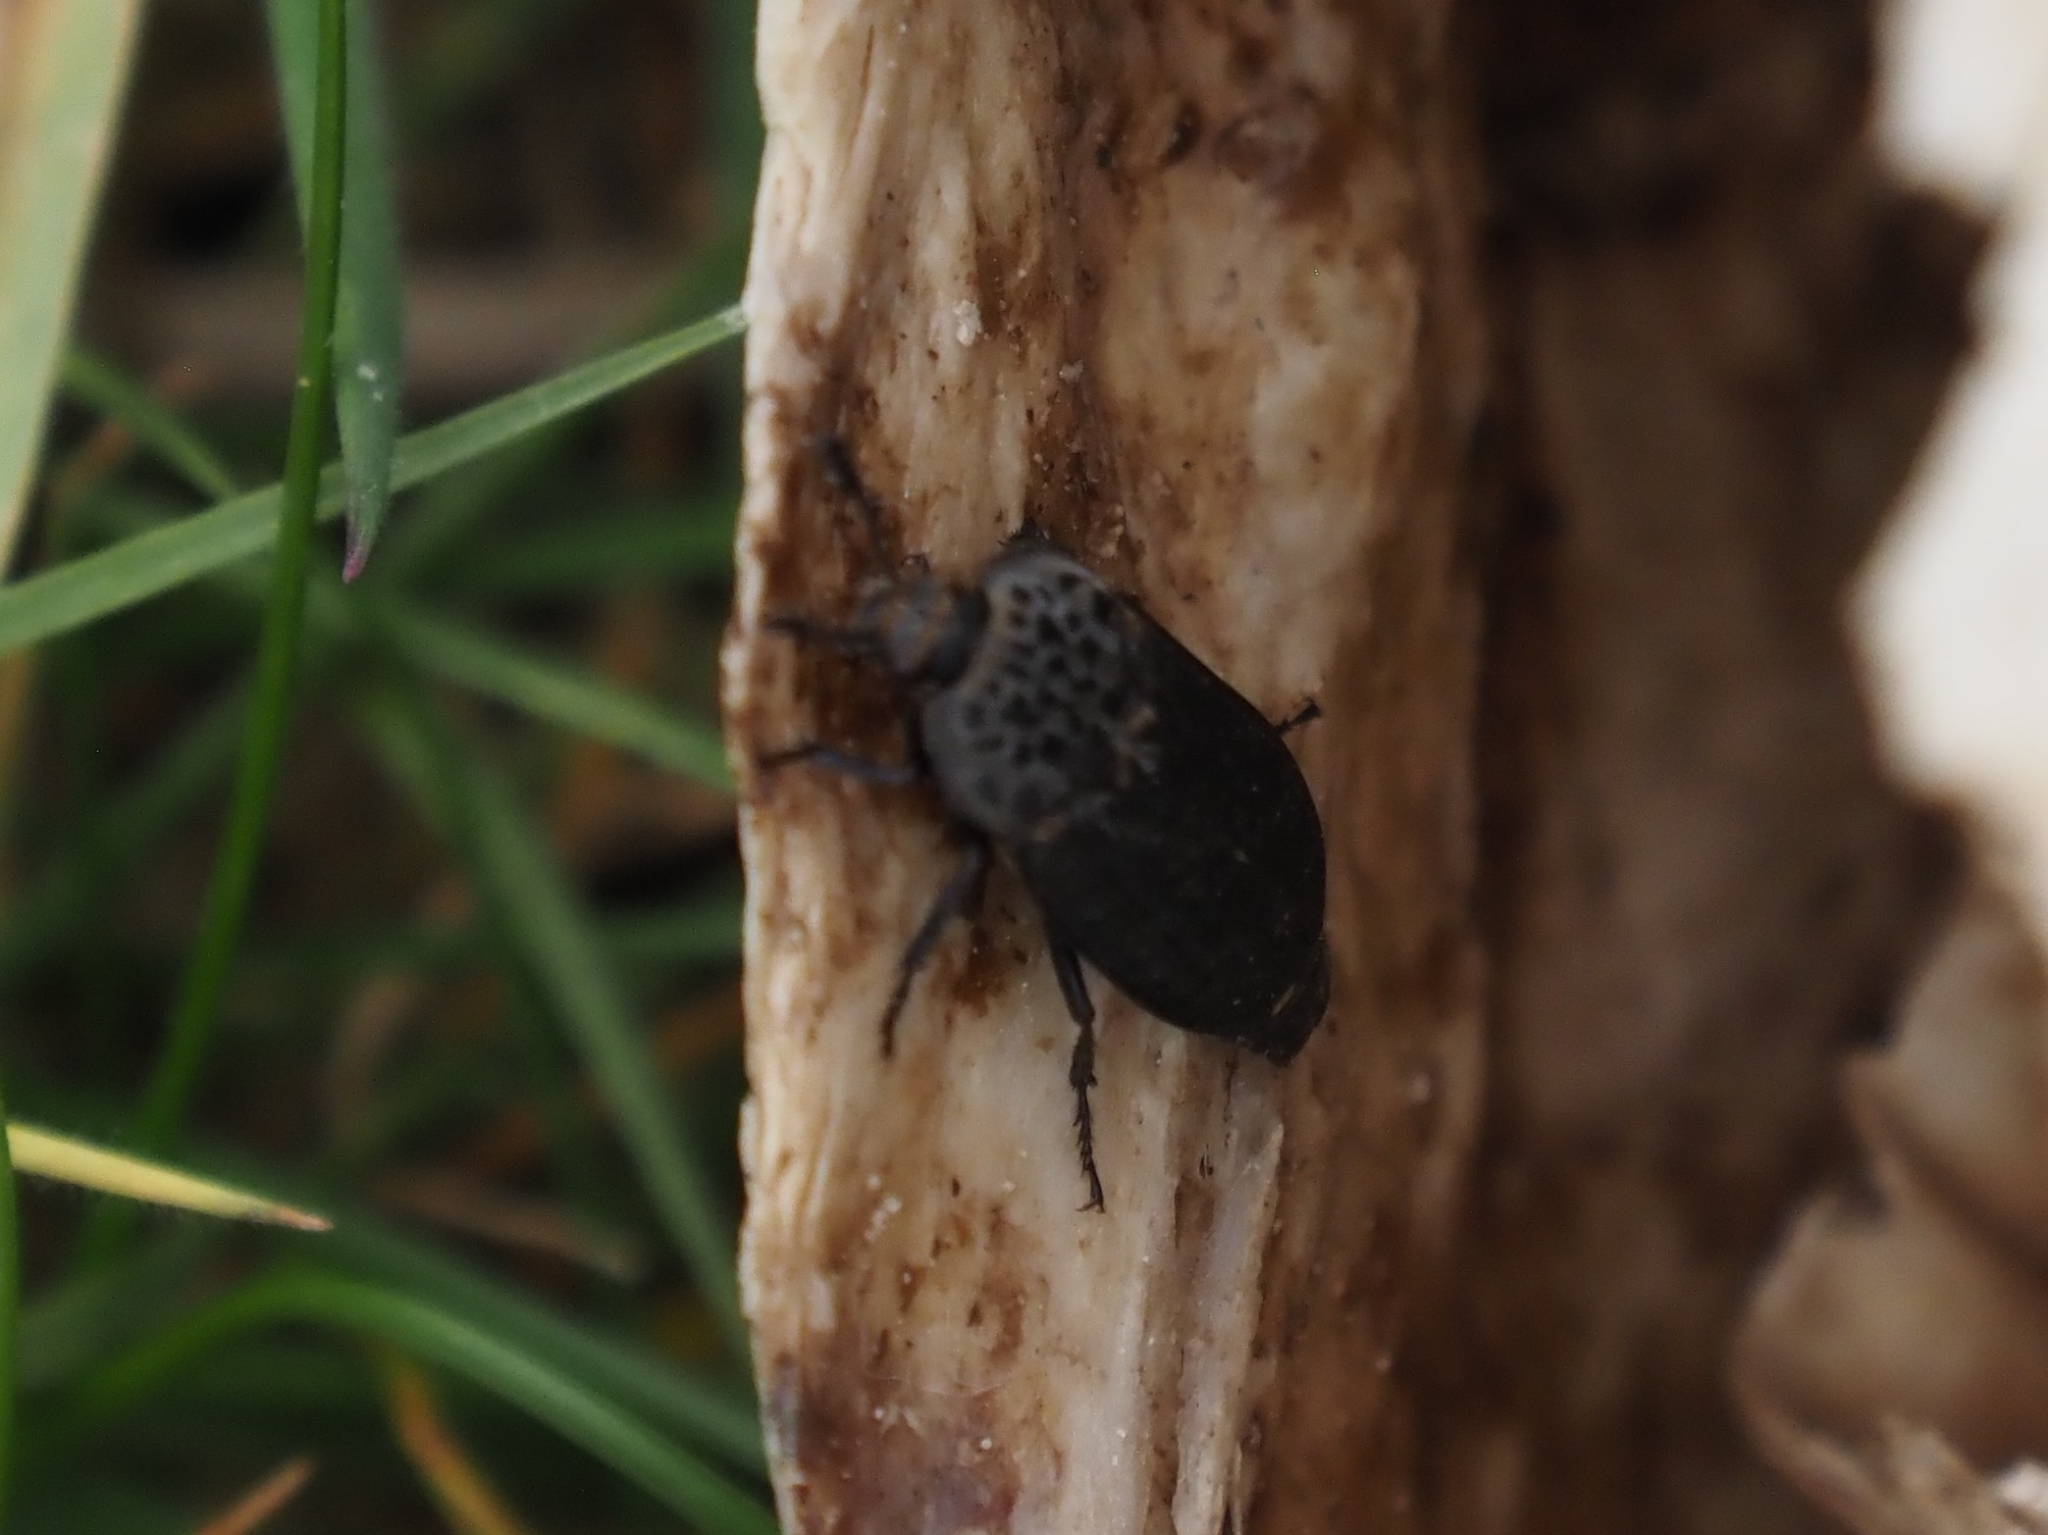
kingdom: Animalia
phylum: Arthropoda
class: Insecta
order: Coleoptera
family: Staphylinidae
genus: Thanatophilus
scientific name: Thanatophilus rugosus
